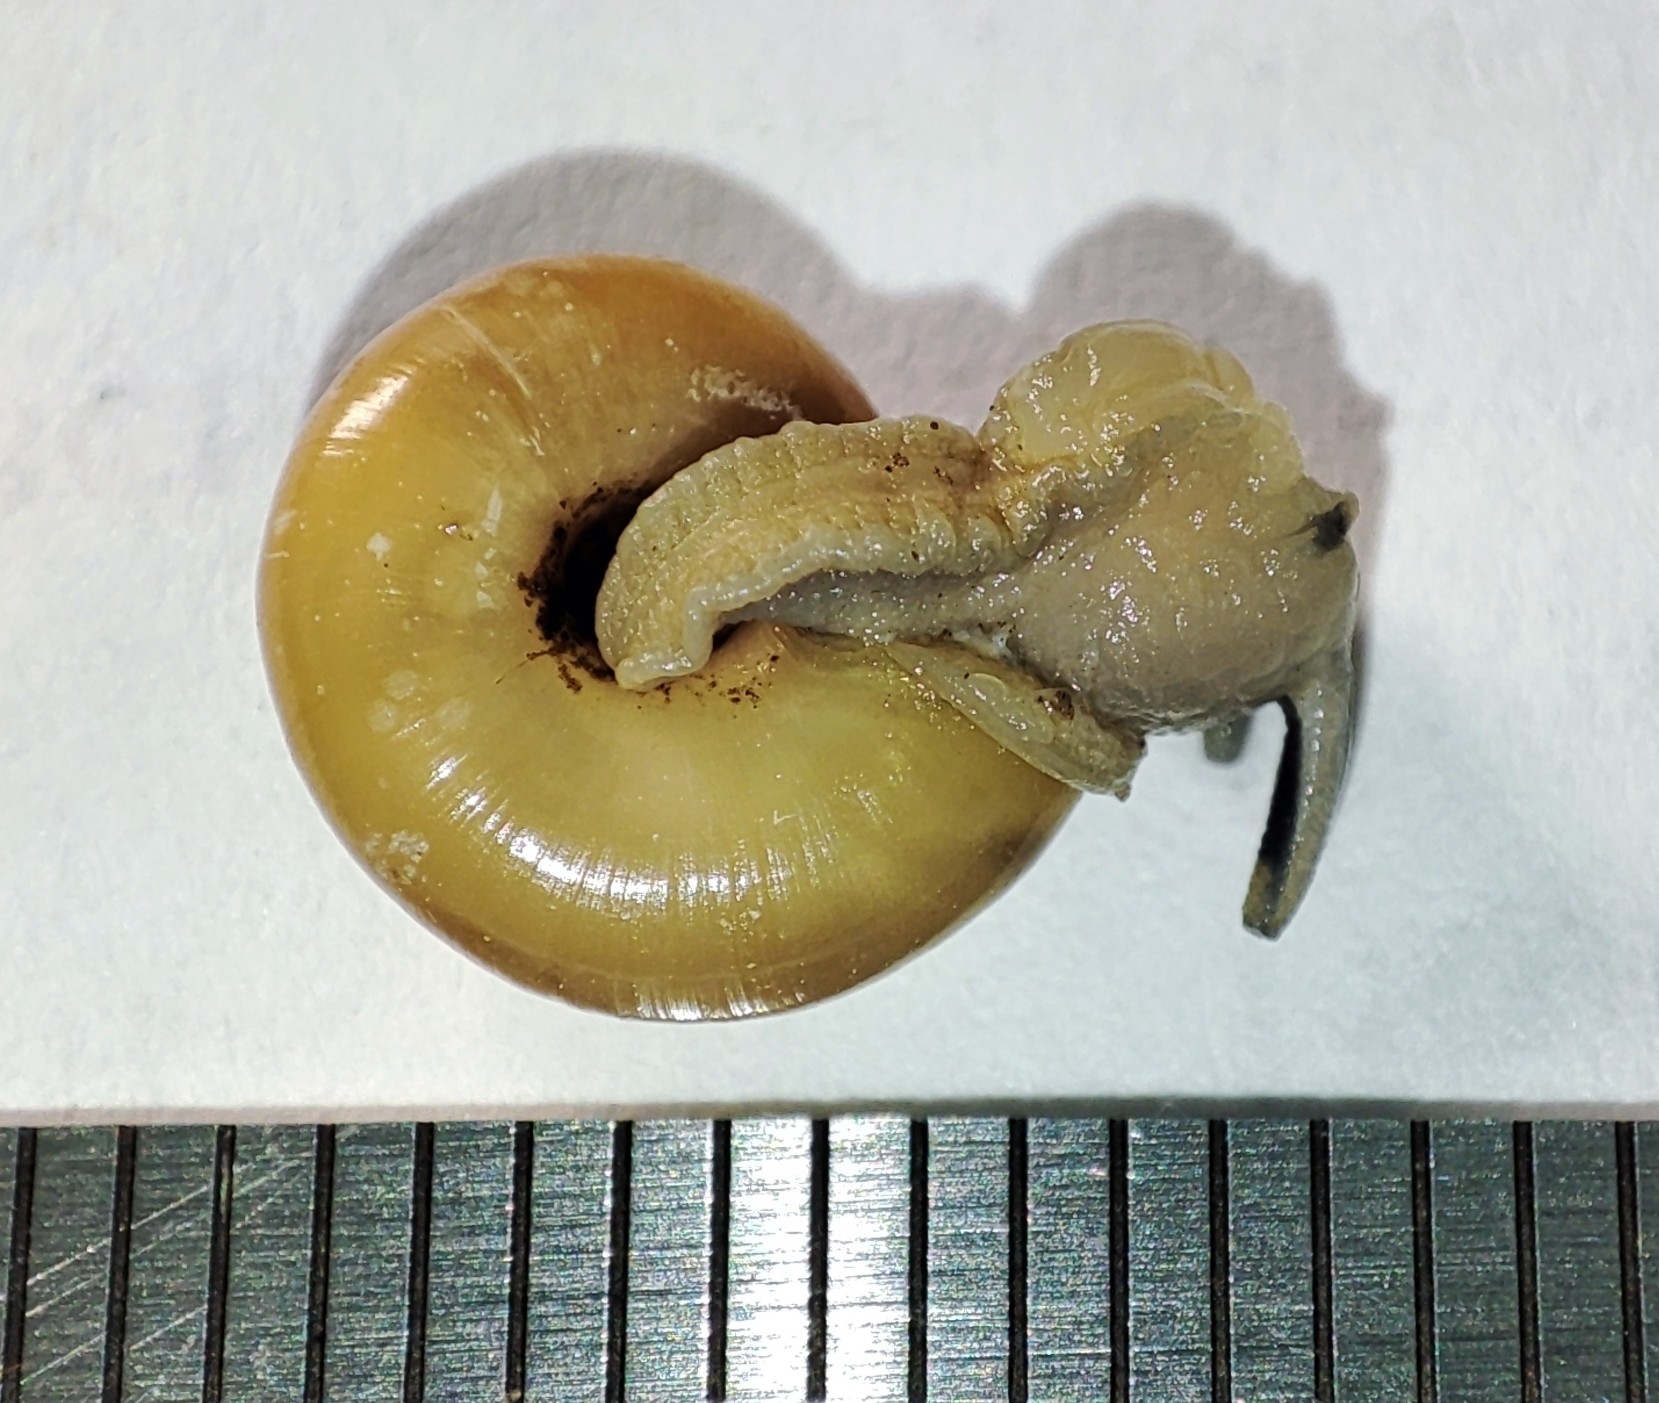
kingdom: Animalia
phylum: Mollusca
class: Gastropoda
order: Stylommatophora
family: Gastrodontidae
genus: Aegopinella
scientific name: Aegopinella nitidula
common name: Smooth glass snail
